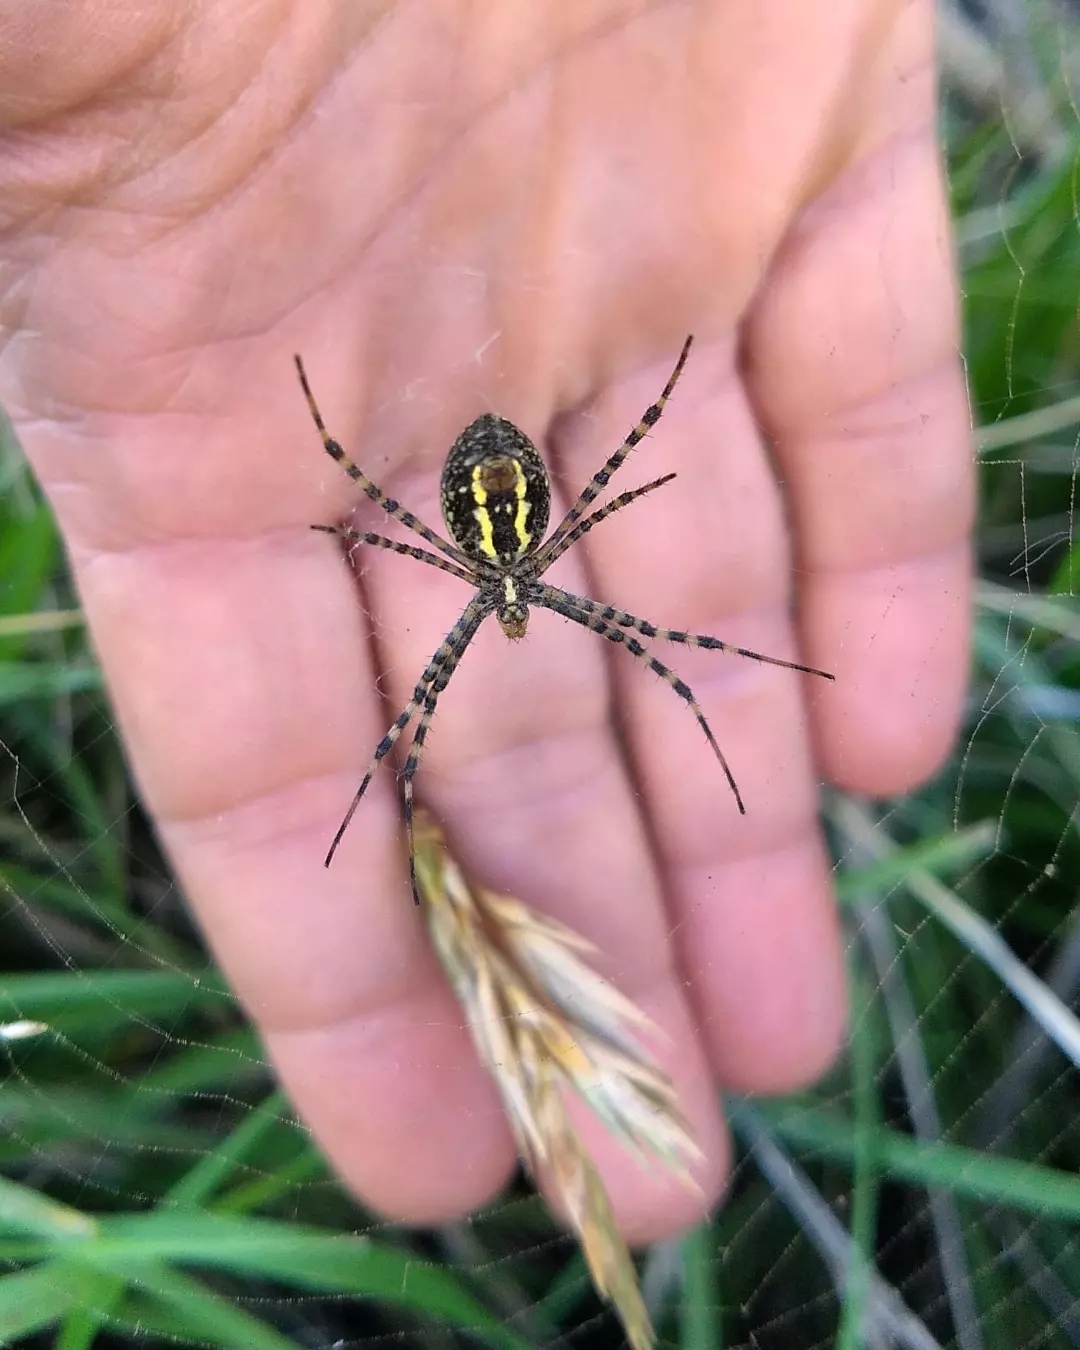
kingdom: Animalia
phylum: Arthropoda
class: Arachnida
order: Araneae
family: Araneidae
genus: Argiope
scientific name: Argiope trifasciata
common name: Banded garden spider
